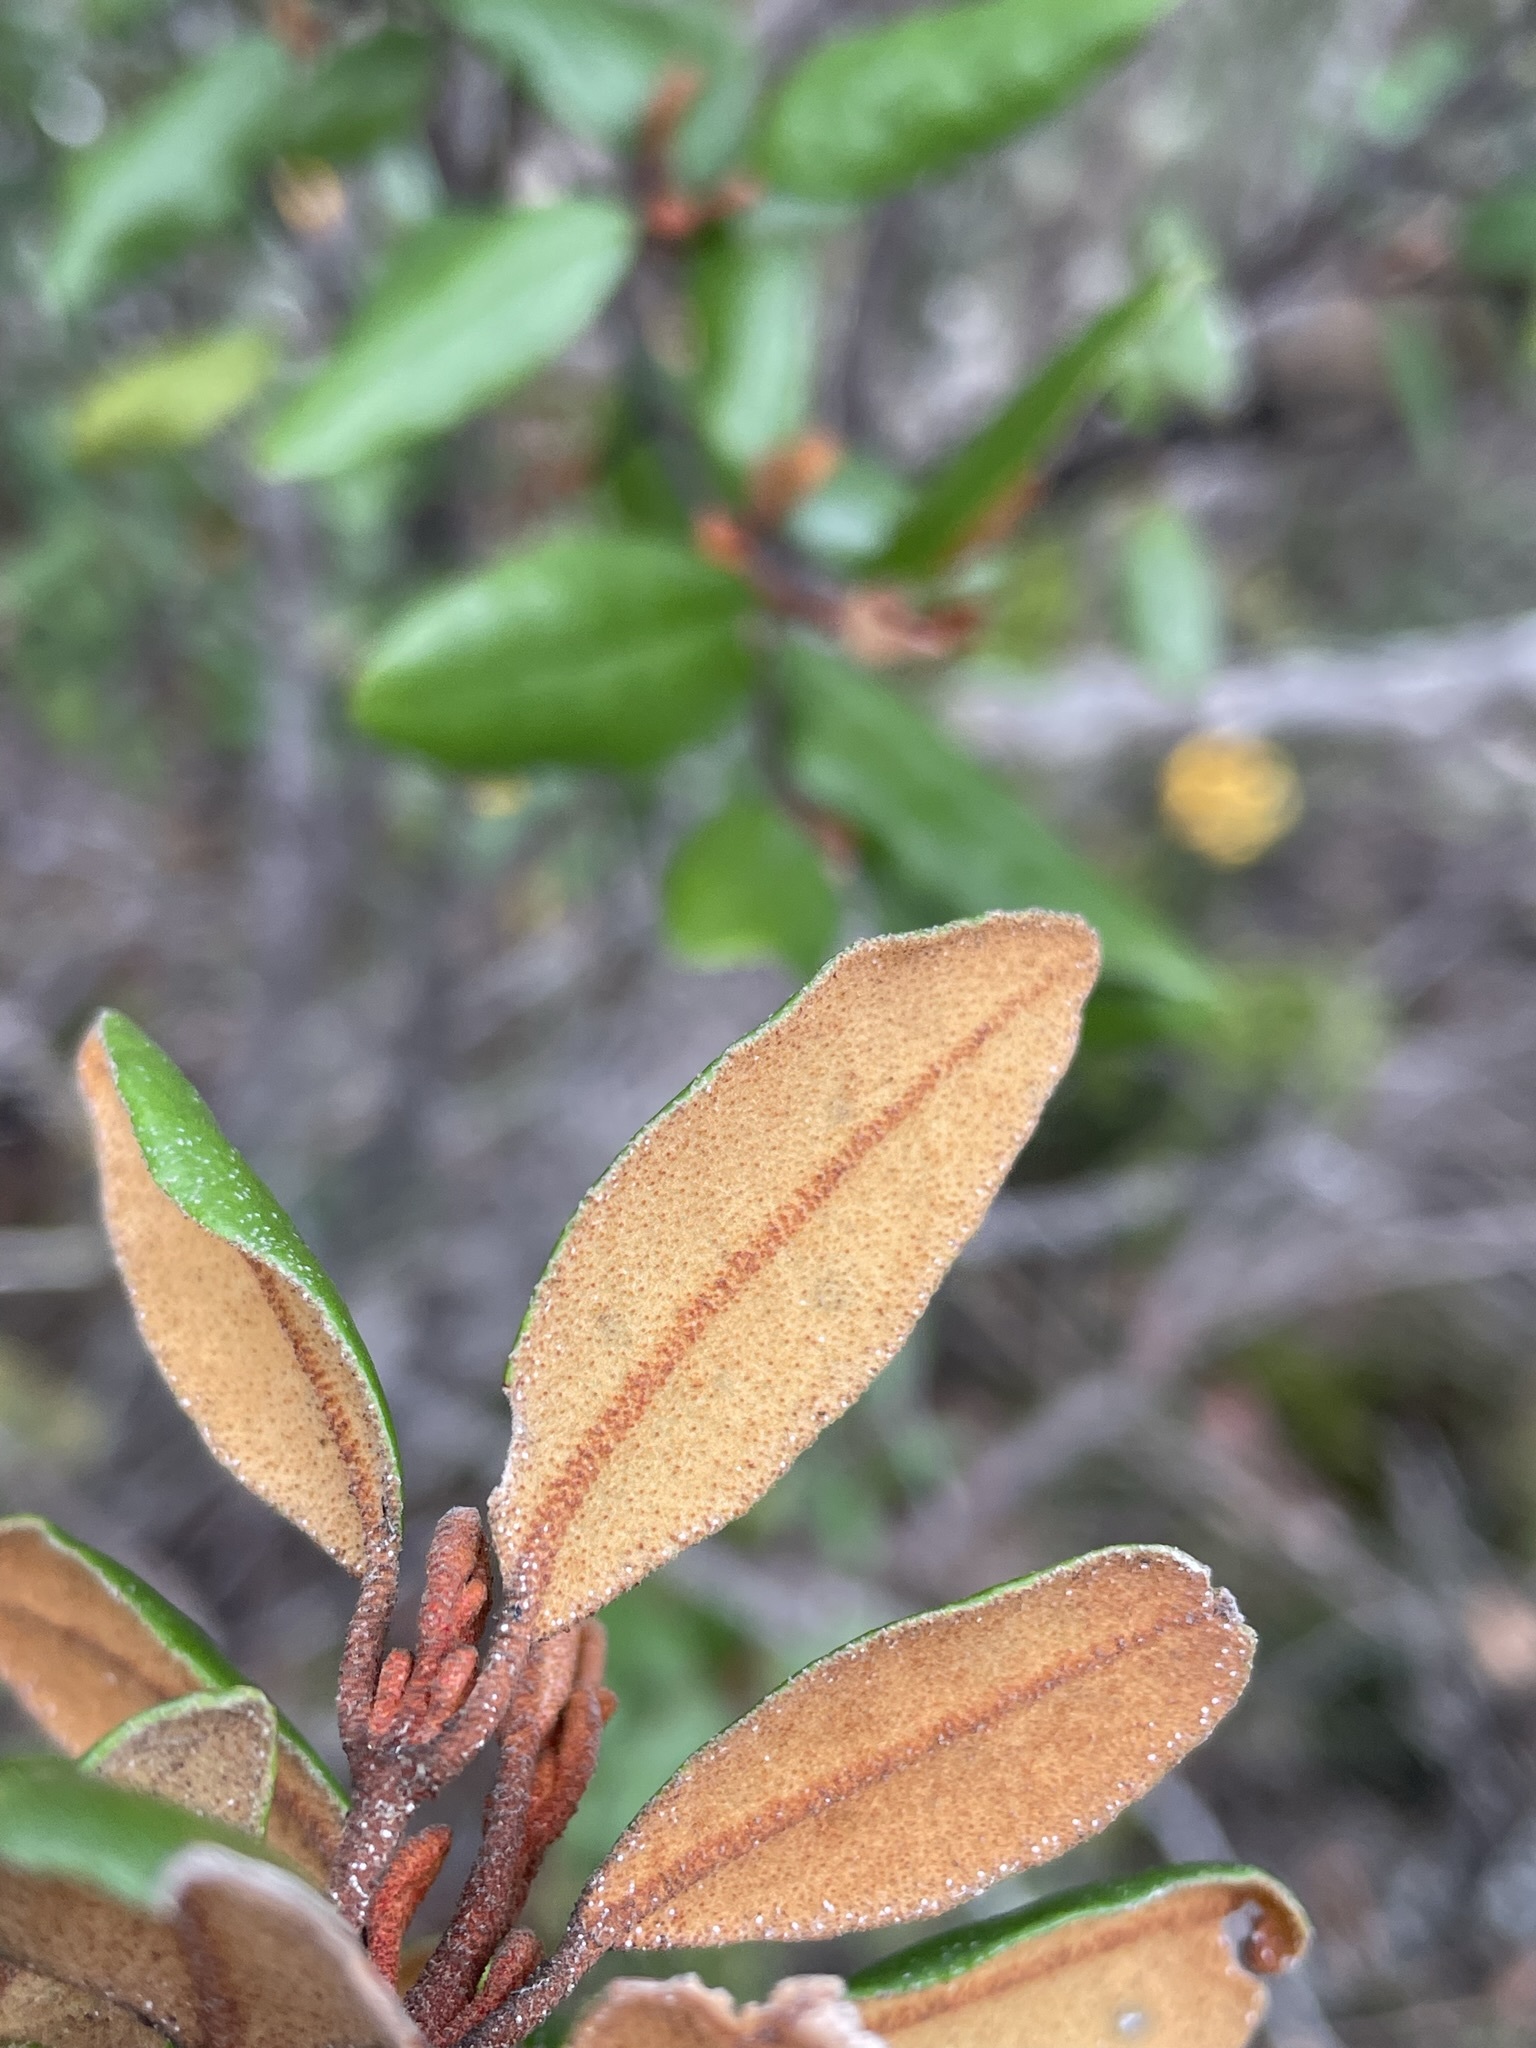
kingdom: Plantae
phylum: Tracheophyta
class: Magnoliopsida
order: Sapindales
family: Rutaceae
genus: Correa
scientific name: Correa lawrenceana
